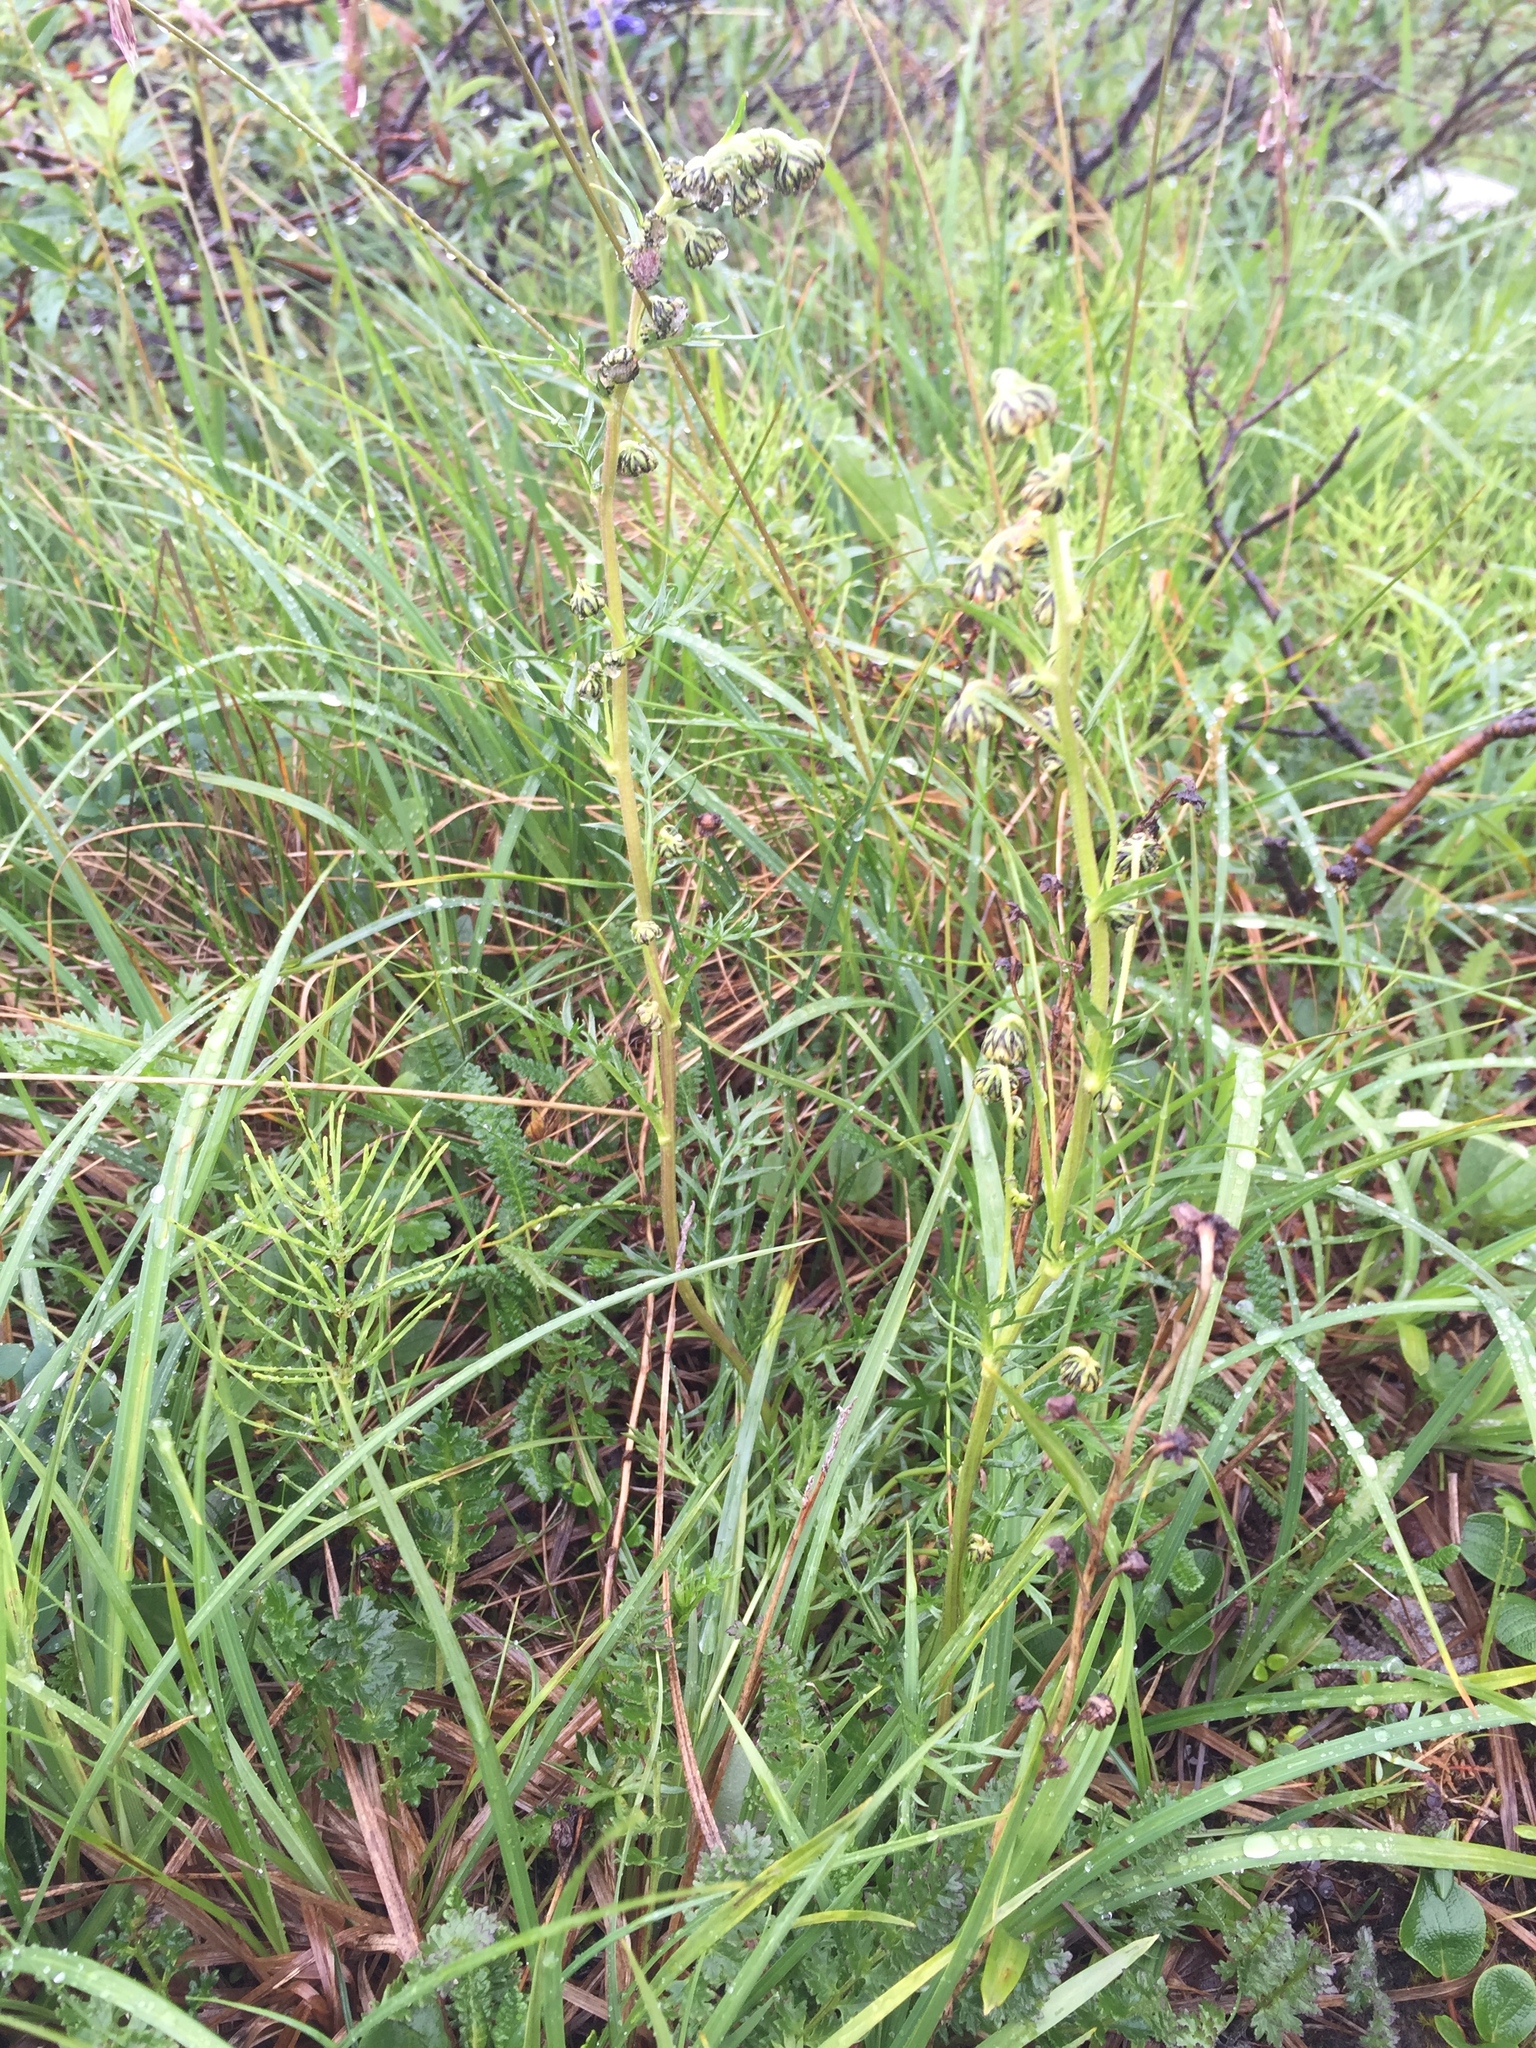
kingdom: Plantae
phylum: Tracheophyta
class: Magnoliopsida
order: Asterales
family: Asteraceae
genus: Artemisia
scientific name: Artemisia norvegica
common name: Norwegian mugwort
